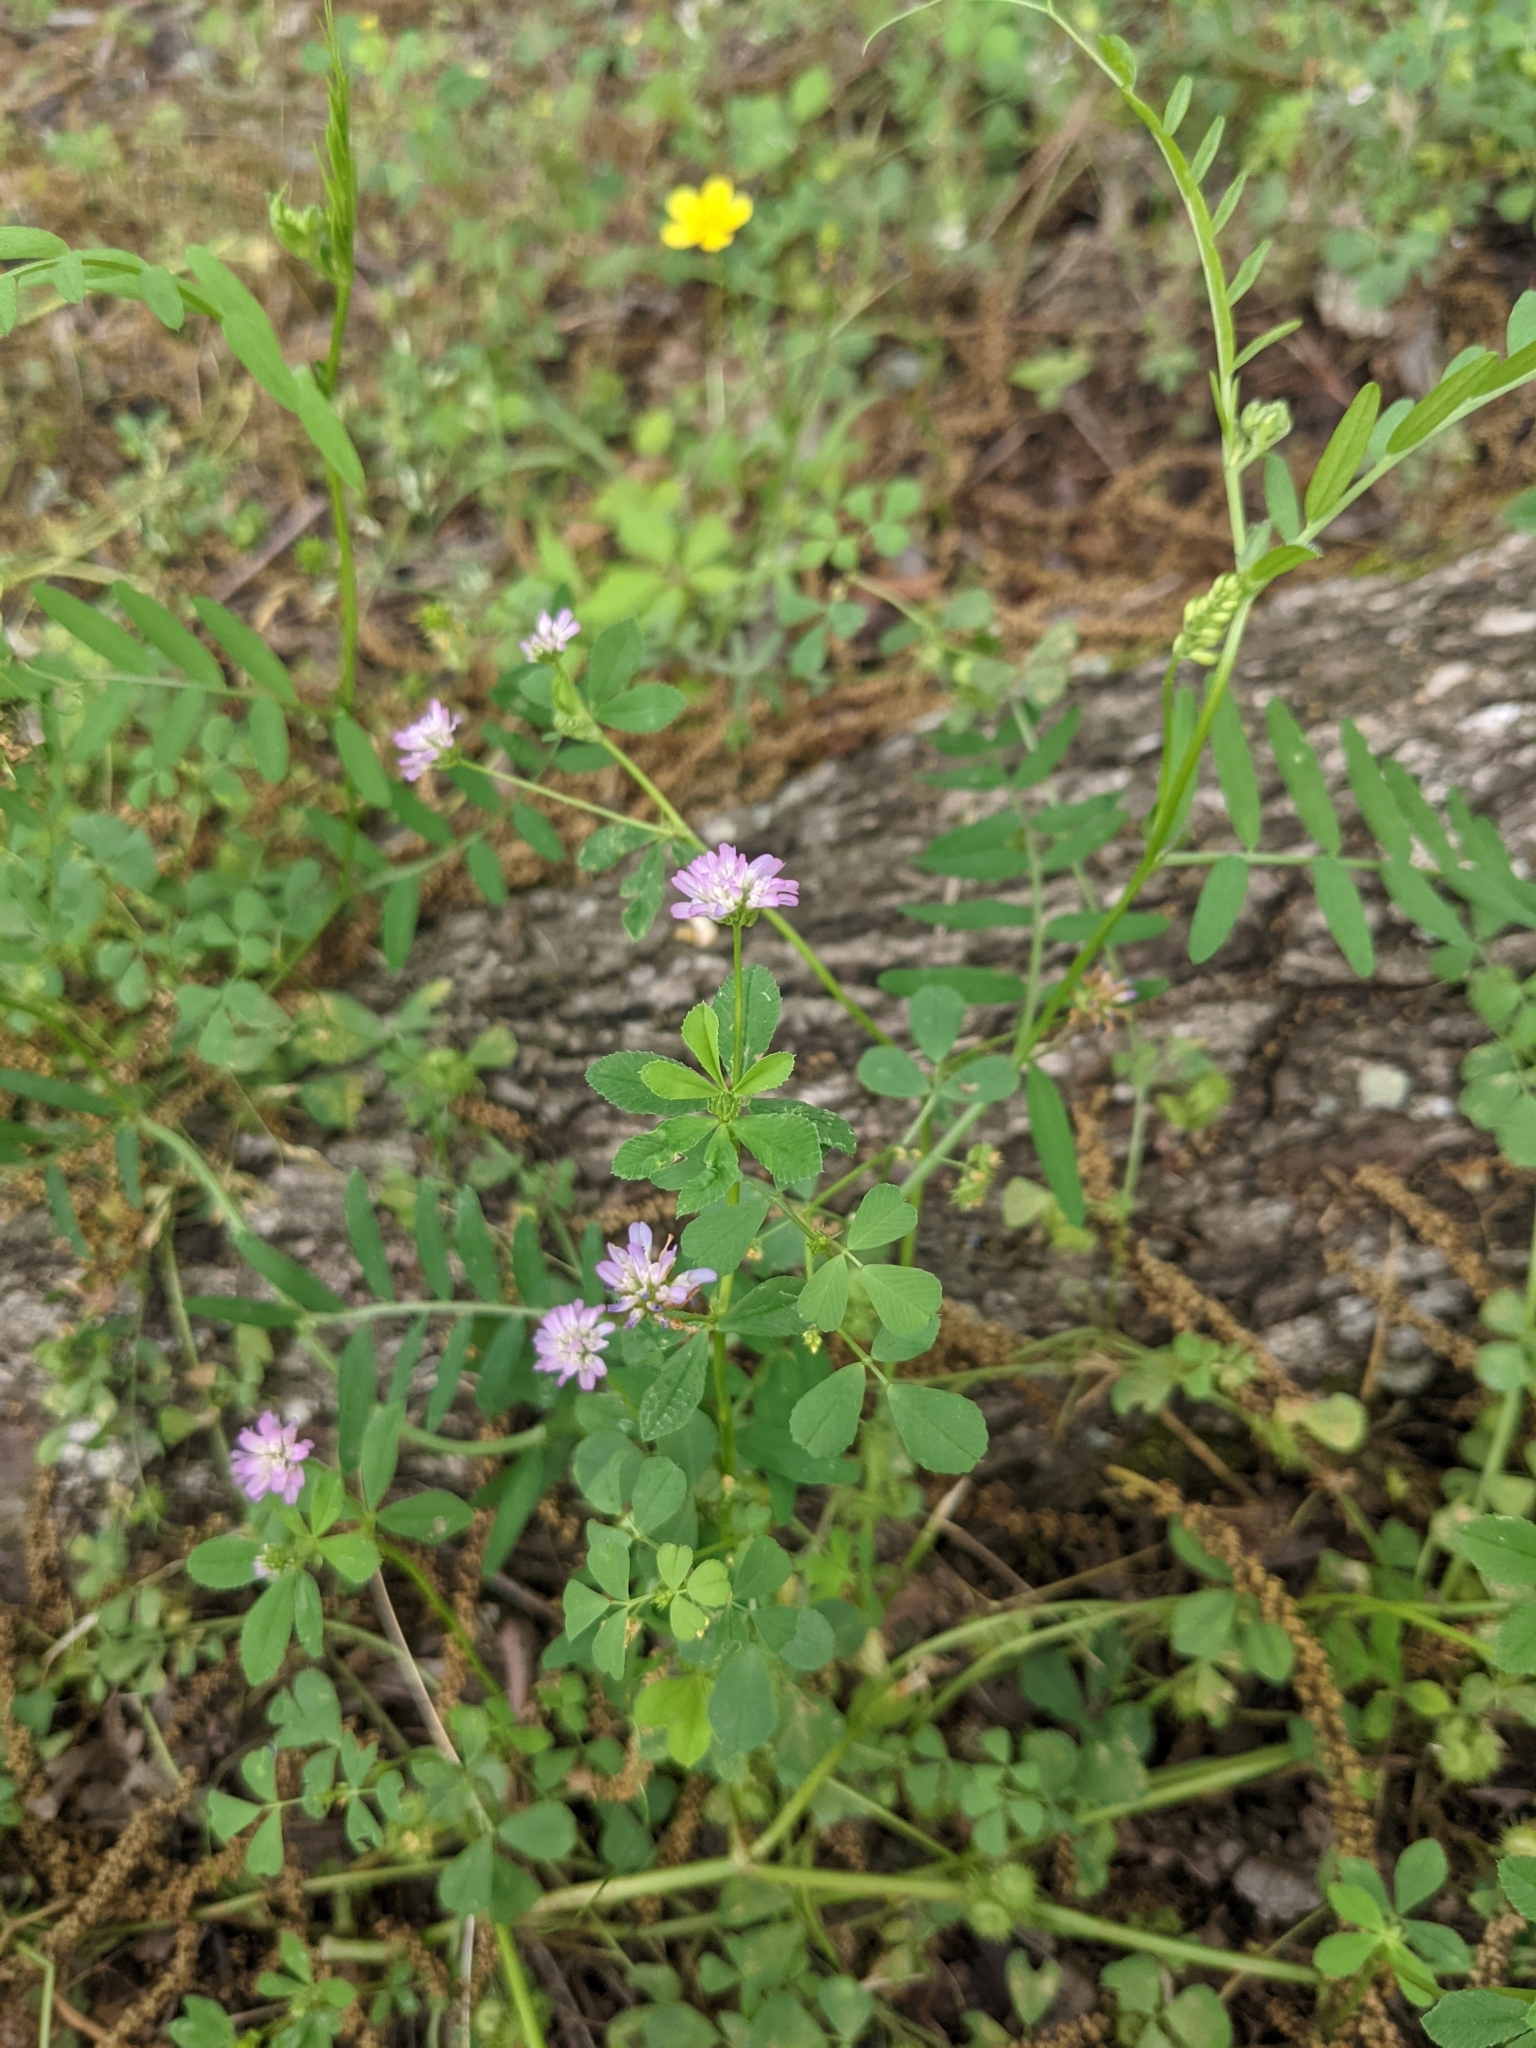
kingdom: Plantae
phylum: Tracheophyta
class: Magnoliopsida
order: Fabales
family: Fabaceae
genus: Trifolium
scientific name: Trifolium resupinatum
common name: Reversed clover
